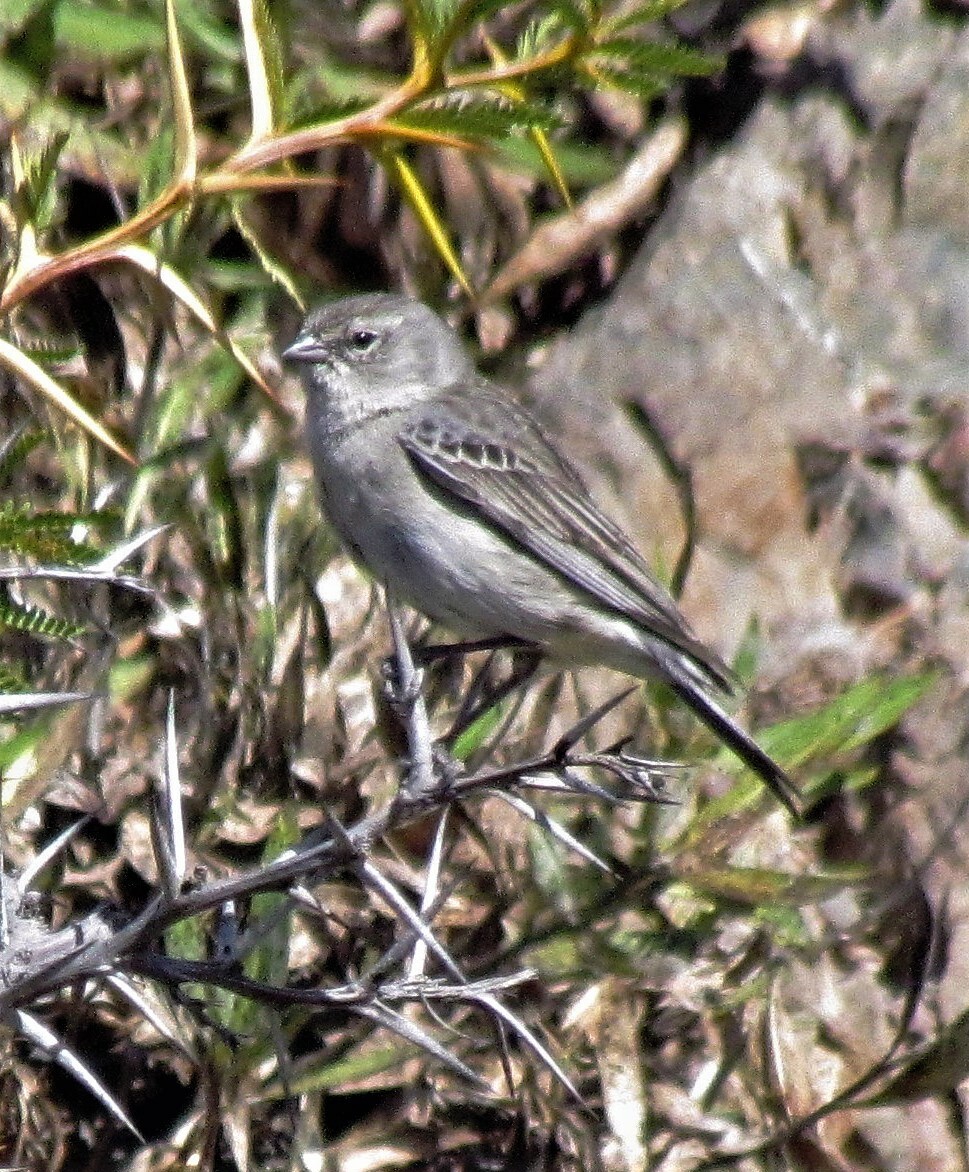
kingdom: Animalia
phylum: Chordata
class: Aves
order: Passeriformes
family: Thraupidae
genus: Geospizopsis
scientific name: Geospizopsis plebejus
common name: Ash-breasted sierra-finch
